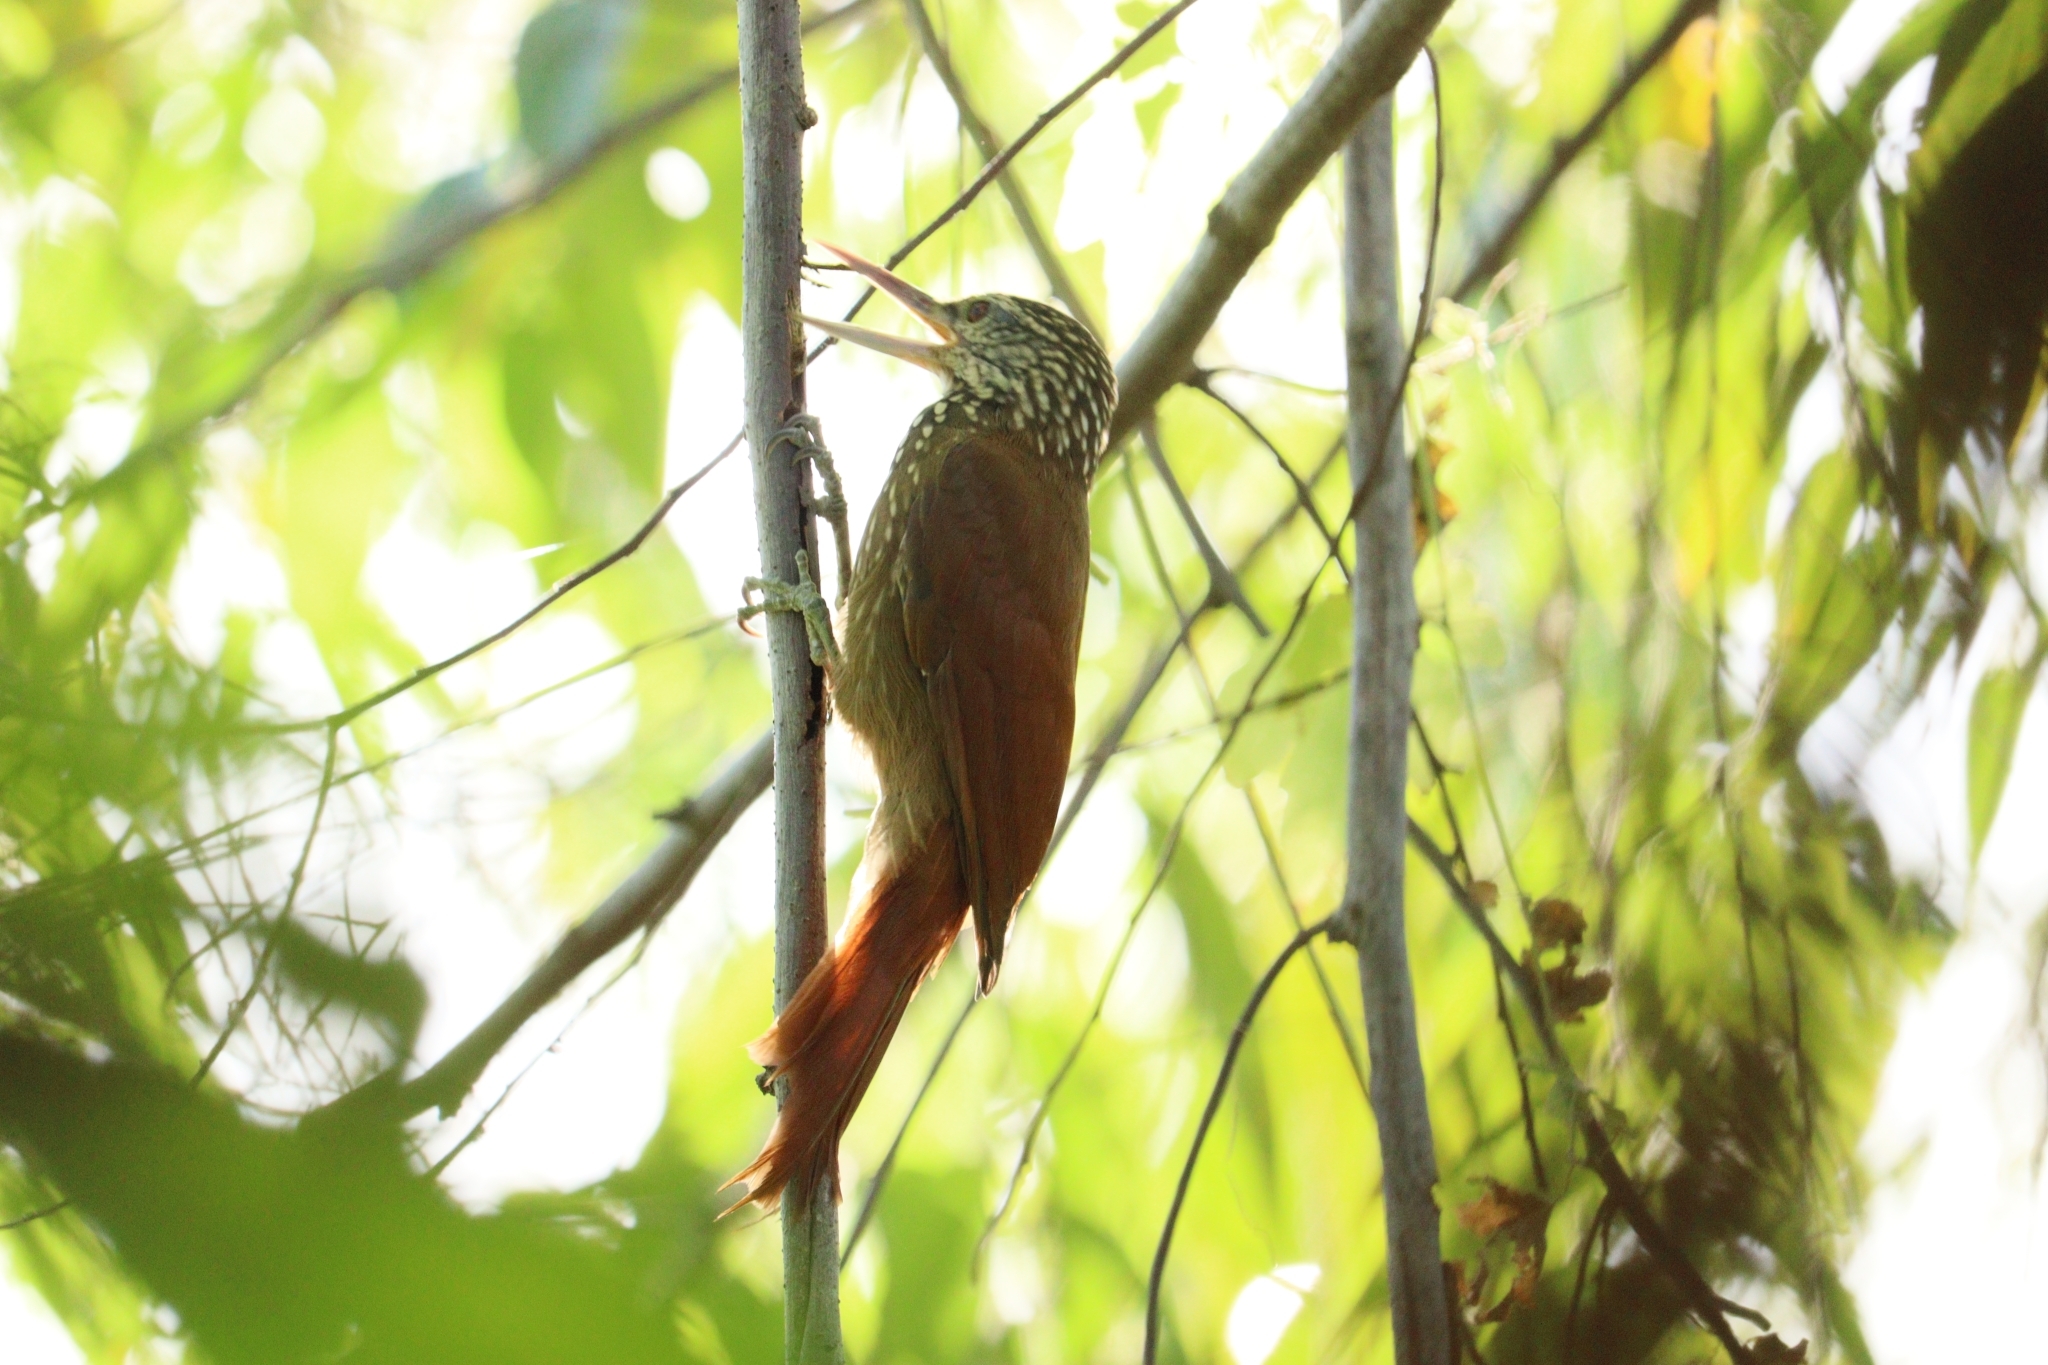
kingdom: Animalia
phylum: Chordata
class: Aves
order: Passeriformes
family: Furnariidae
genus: Xiphorhynchus
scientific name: Xiphorhynchus picus
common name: Straight-billed woodcreeper
